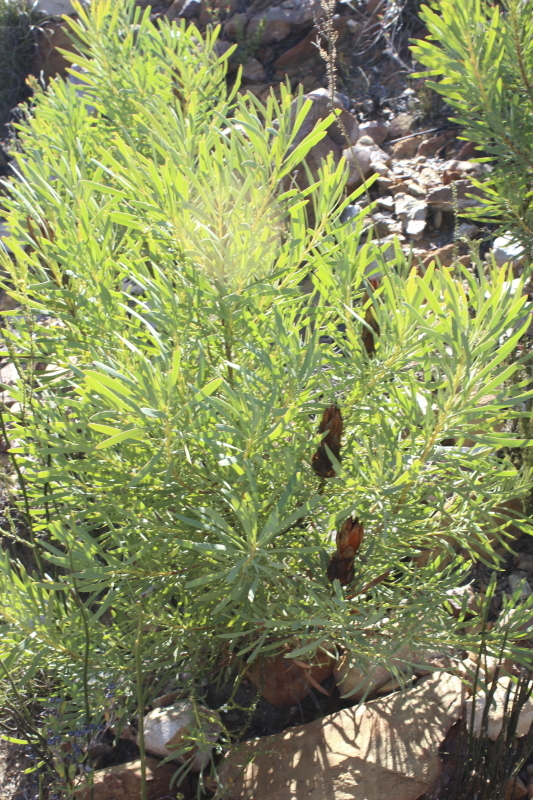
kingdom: Plantae
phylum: Tracheophyta
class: Magnoliopsida
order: Proteales
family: Proteaceae
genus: Protea
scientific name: Protea repens
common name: Sugarbush
